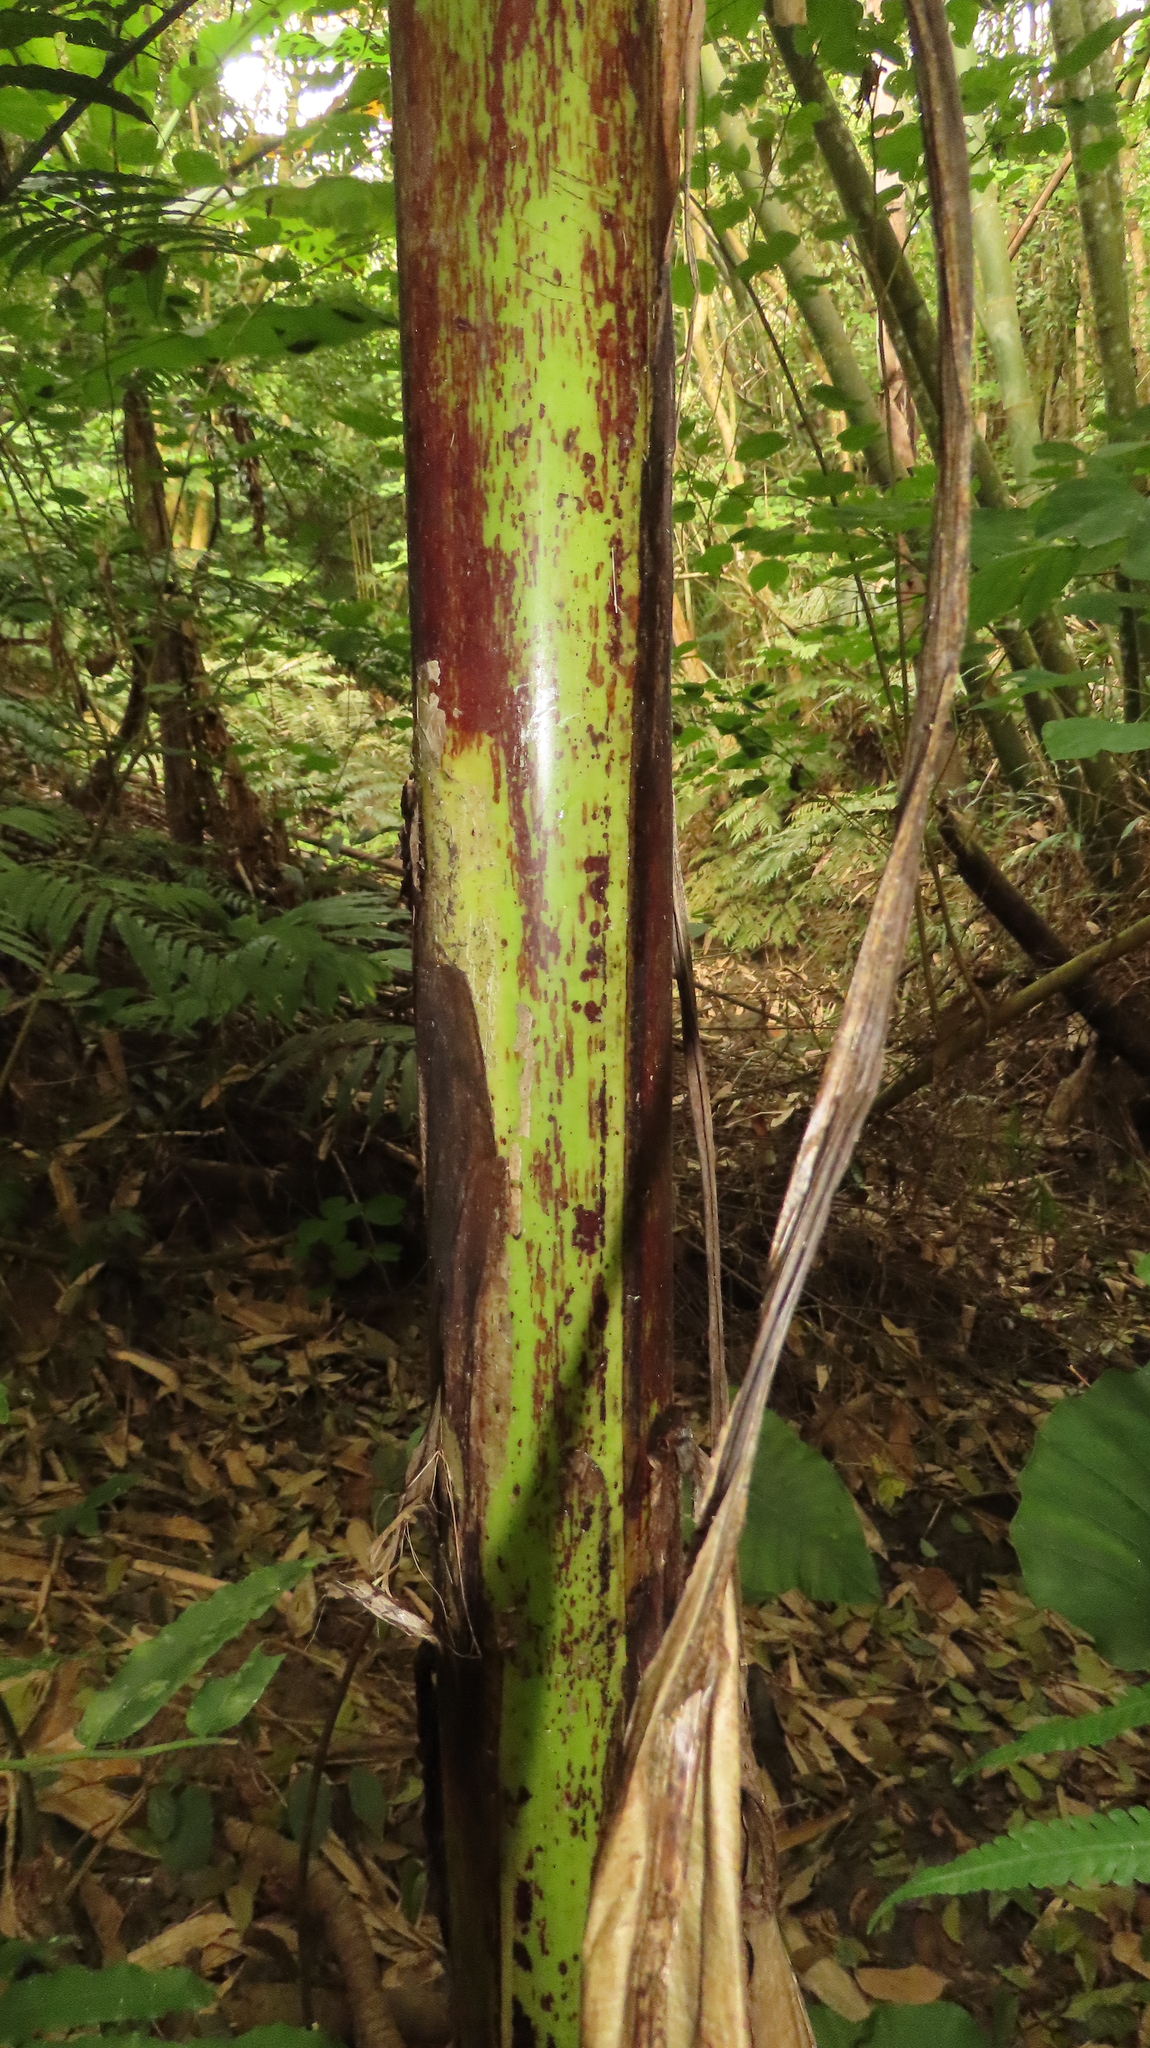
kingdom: Plantae
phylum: Tracheophyta
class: Liliopsida
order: Zingiberales
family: Musaceae
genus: Musa
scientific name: Musa itinerans
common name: Yunnan banana
